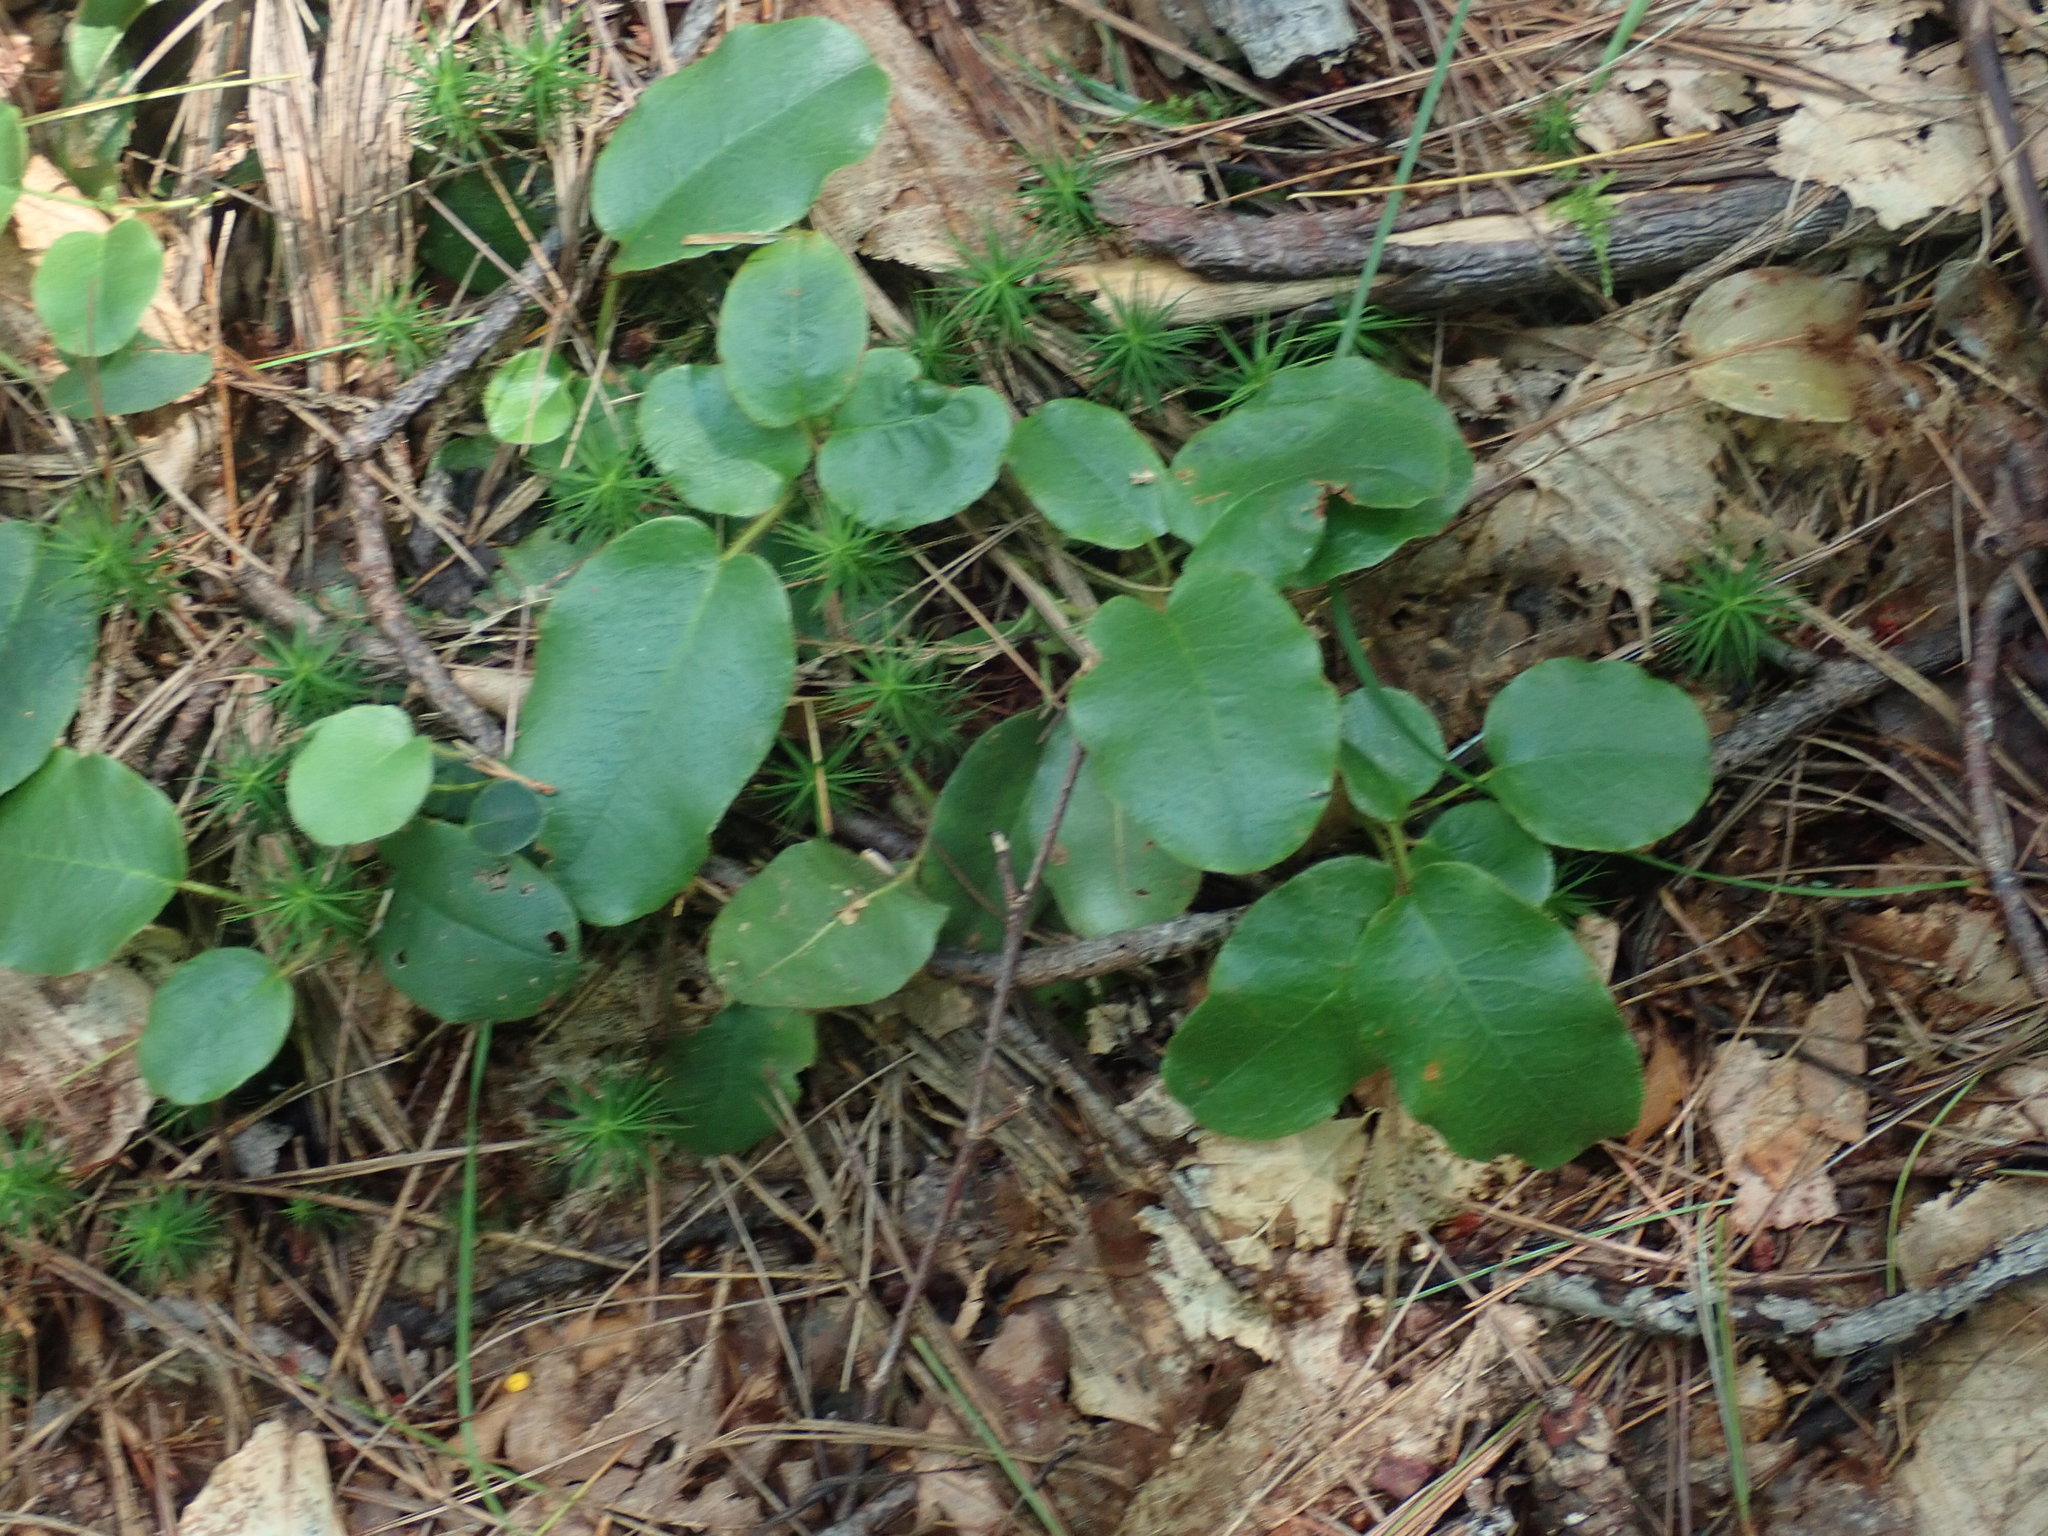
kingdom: Plantae
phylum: Tracheophyta
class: Magnoliopsida
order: Ericales
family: Ericaceae
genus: Epigaea
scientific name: Epigaea repens
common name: Gravelroot
